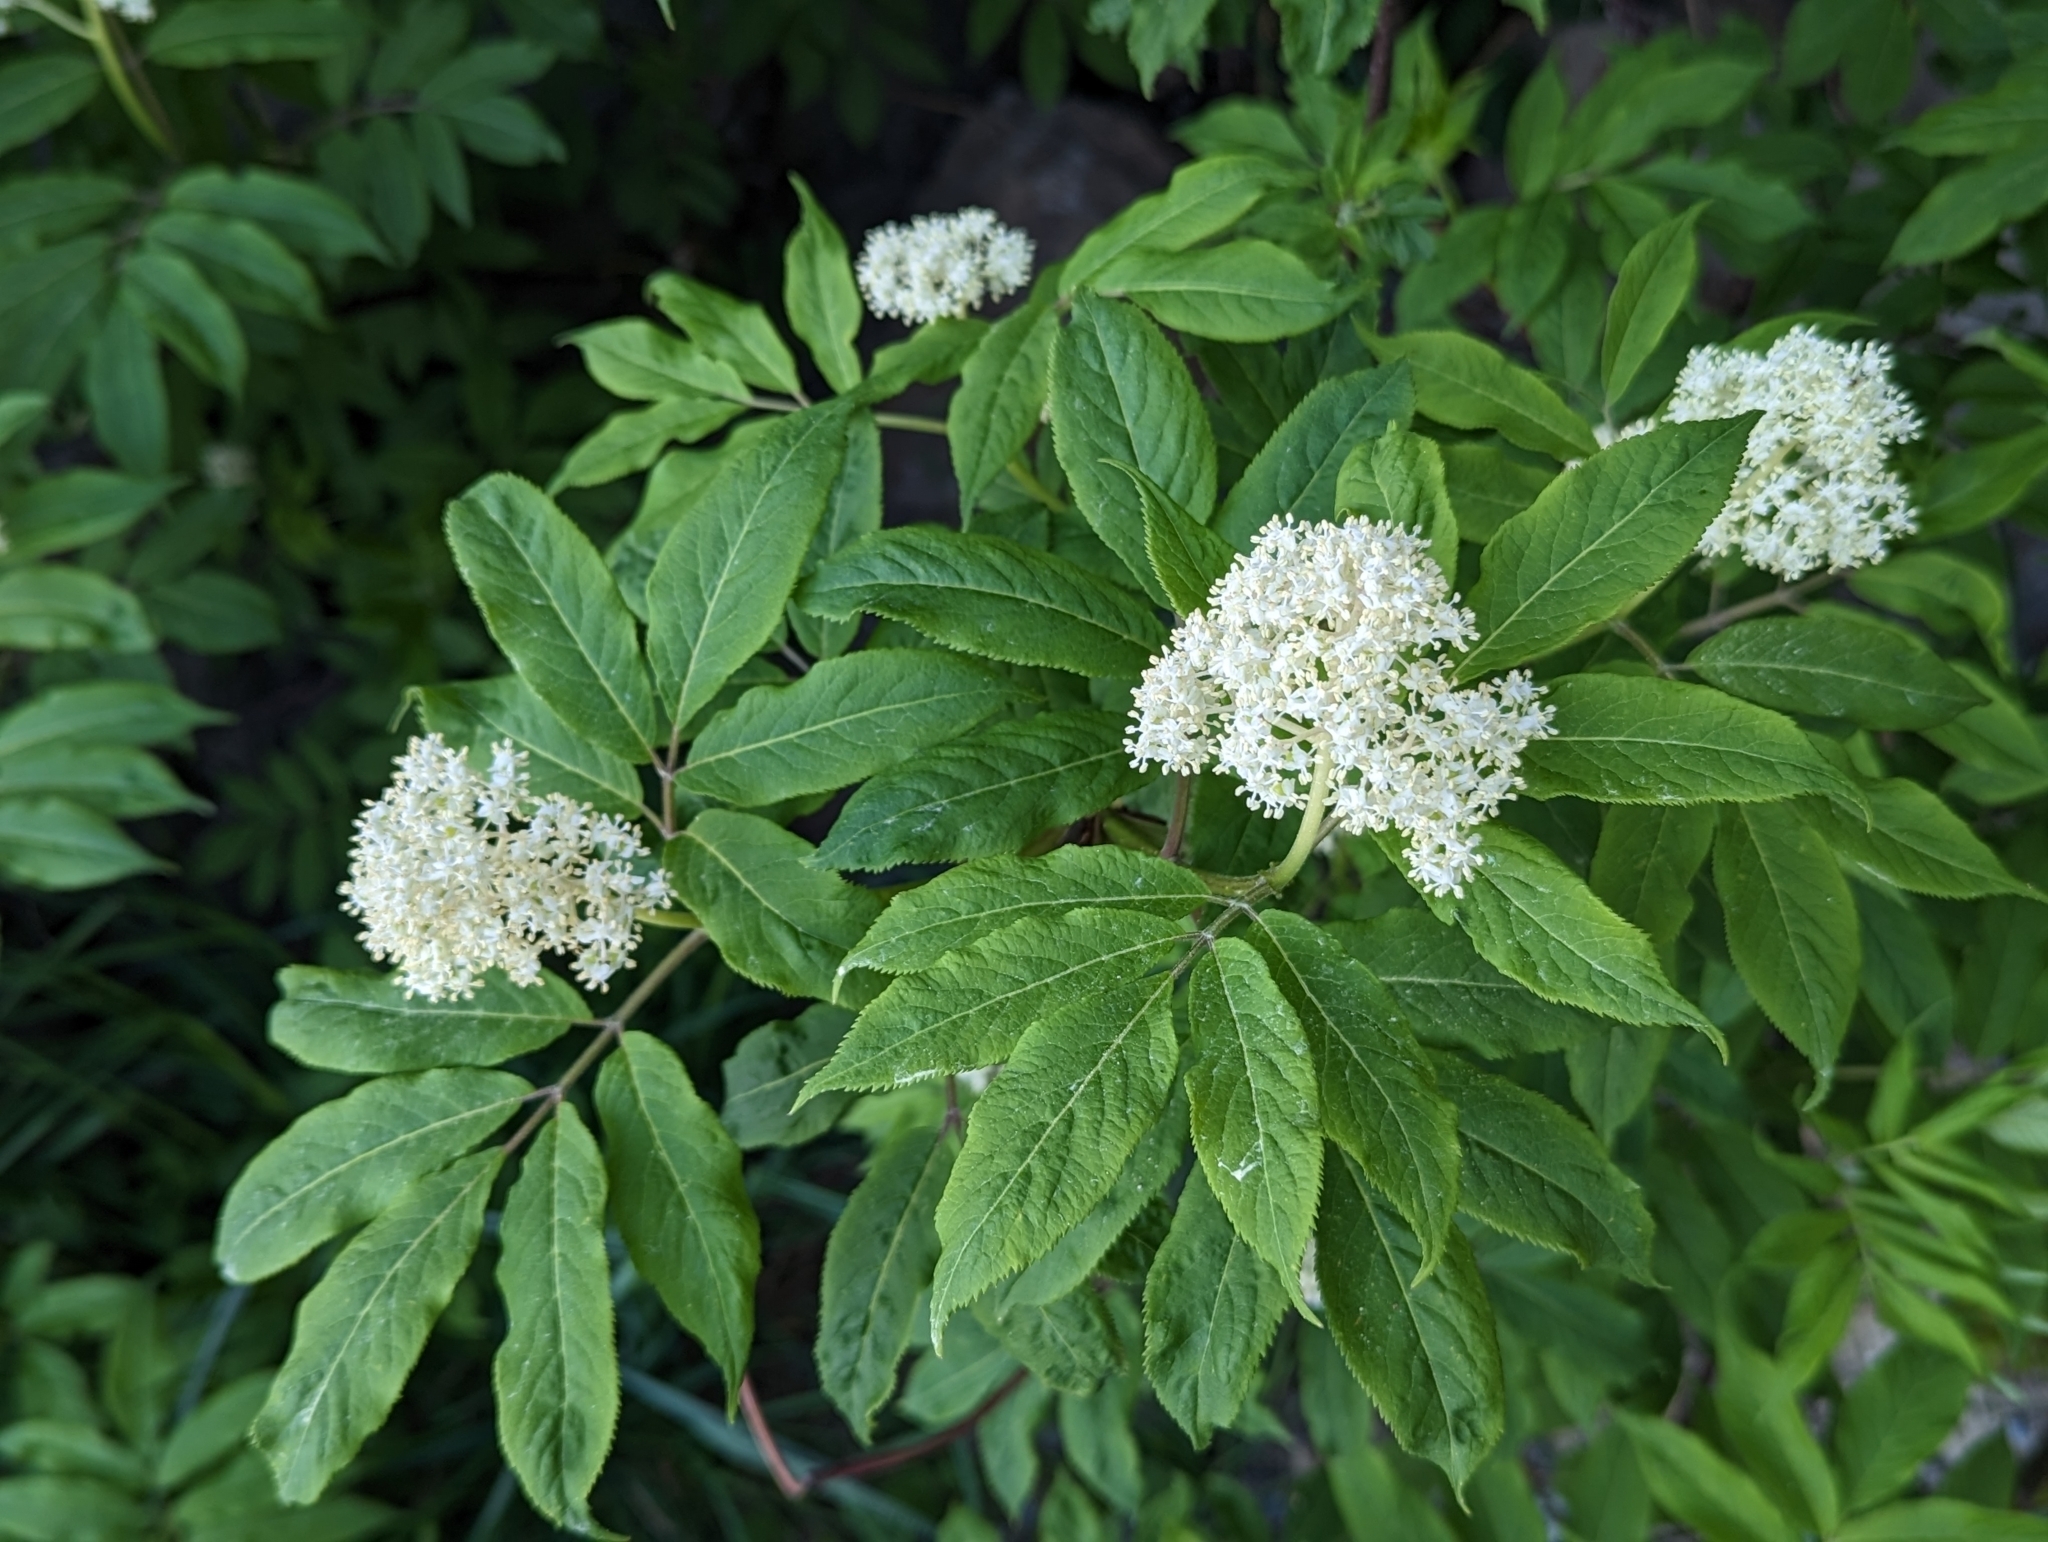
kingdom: Plantae
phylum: Tracheophyta
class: Magnoliopsida
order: Dipsacales
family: Viburnaceae
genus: Sambucus
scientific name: Sambucus racemosa
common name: Red-berried elder
